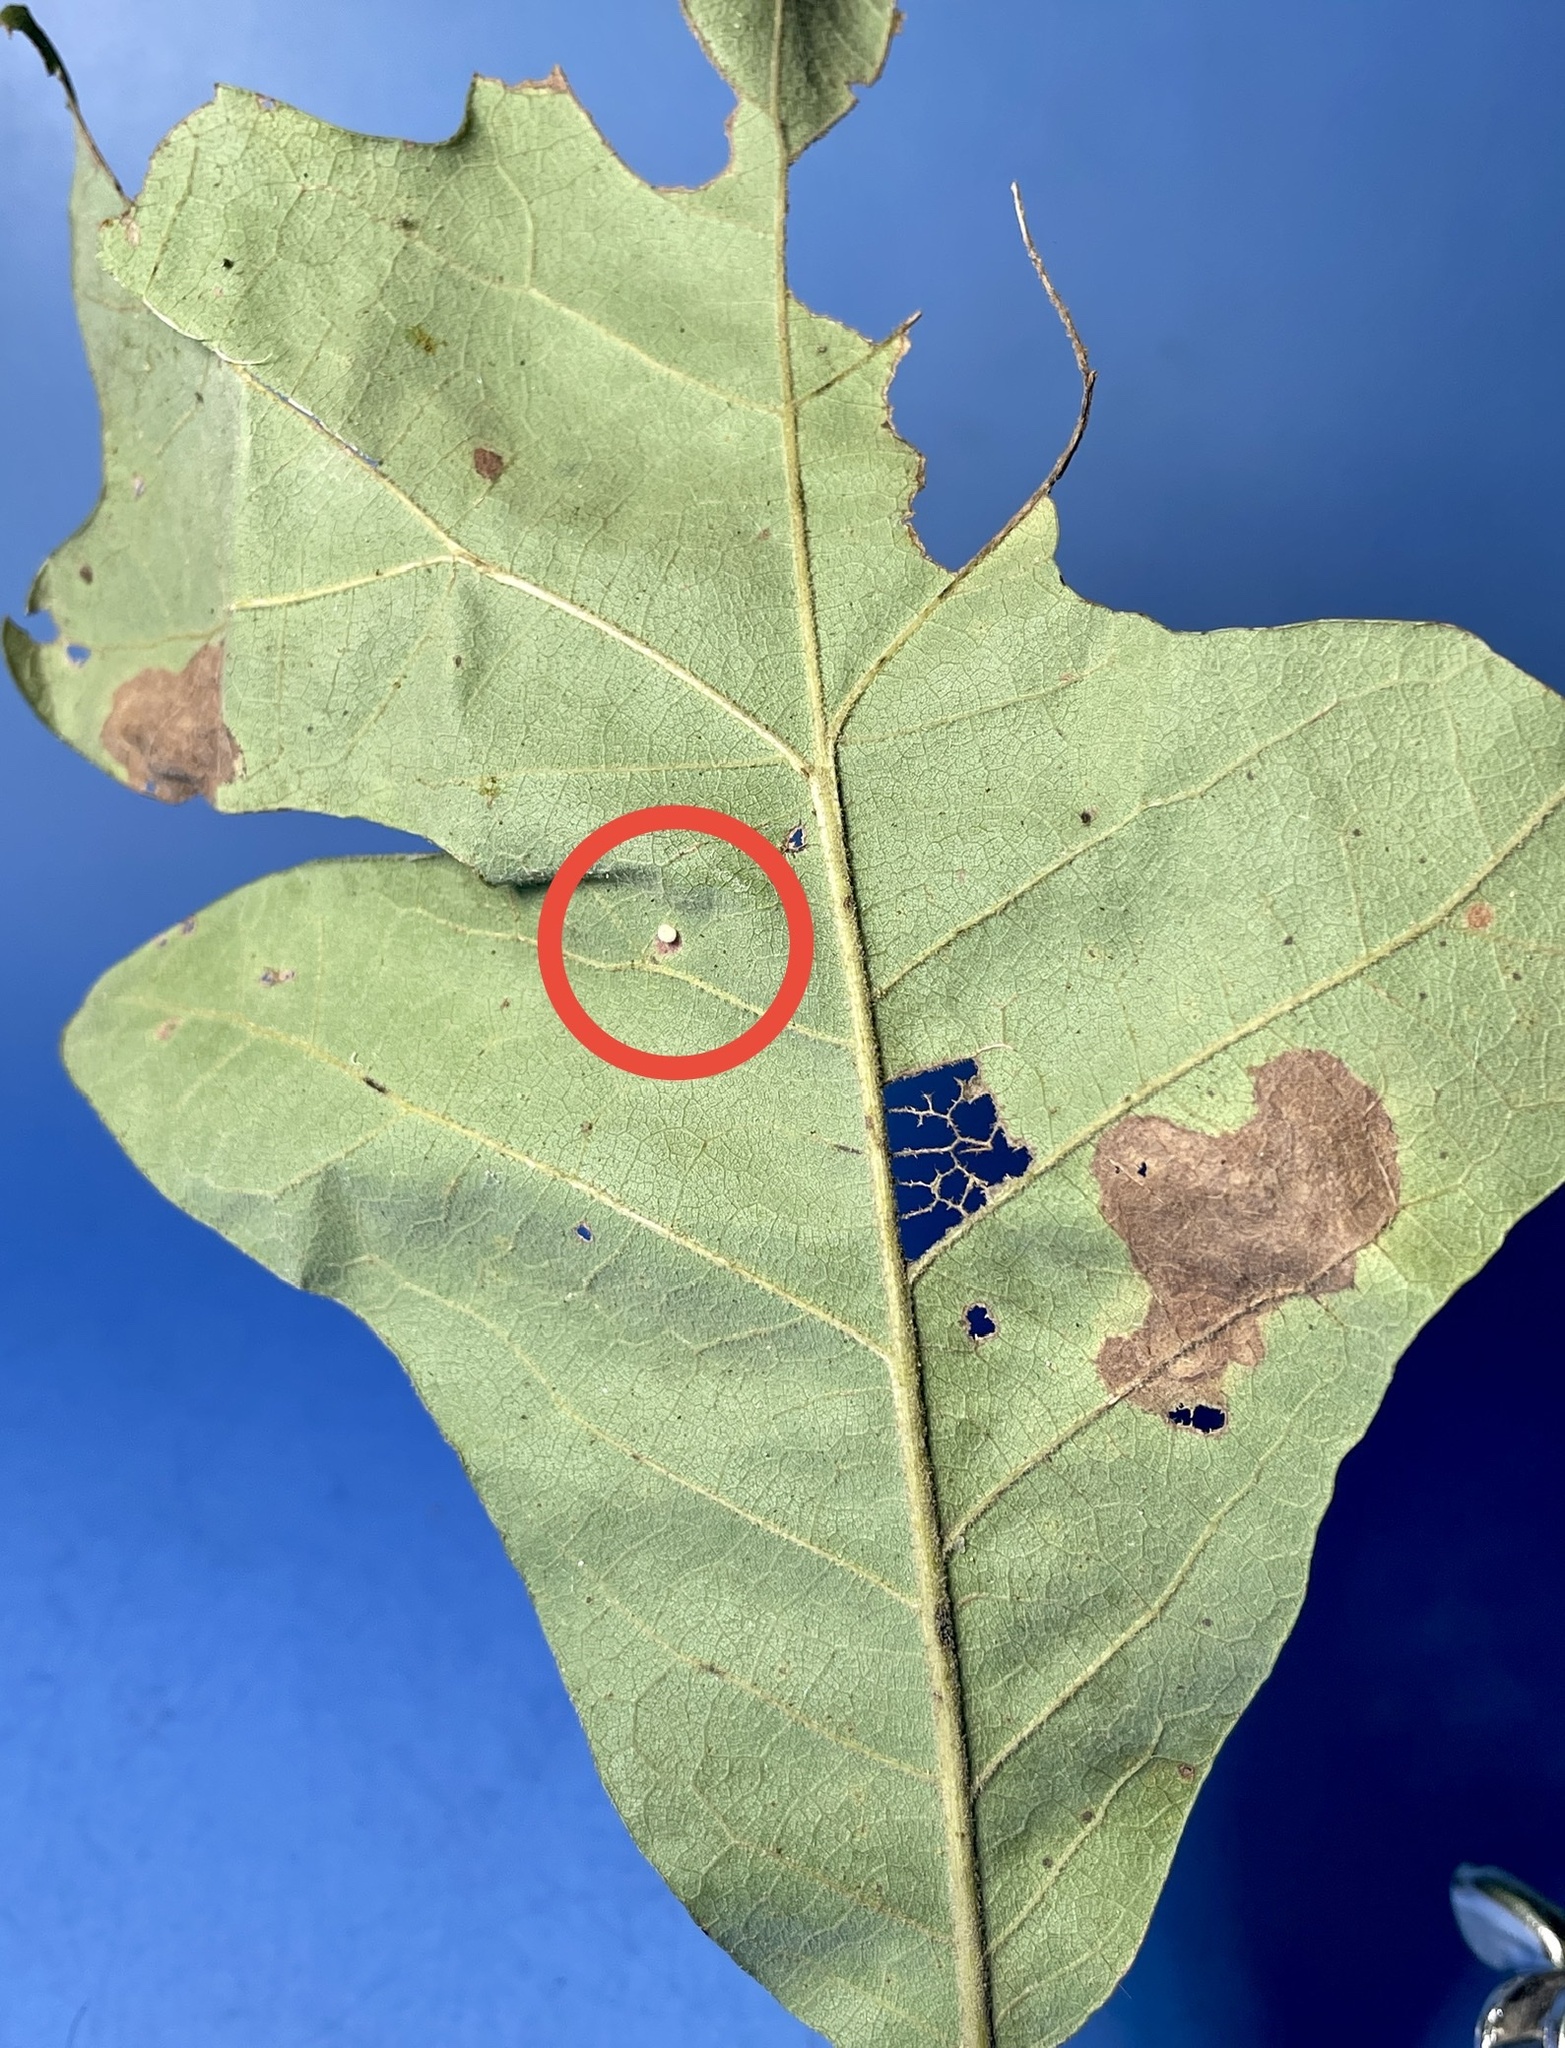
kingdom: Animalia
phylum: Arthropoda
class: Insecta
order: Hymenoptera
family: Cynipidae
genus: Neuroterus
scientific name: Neuroterus saltarius
